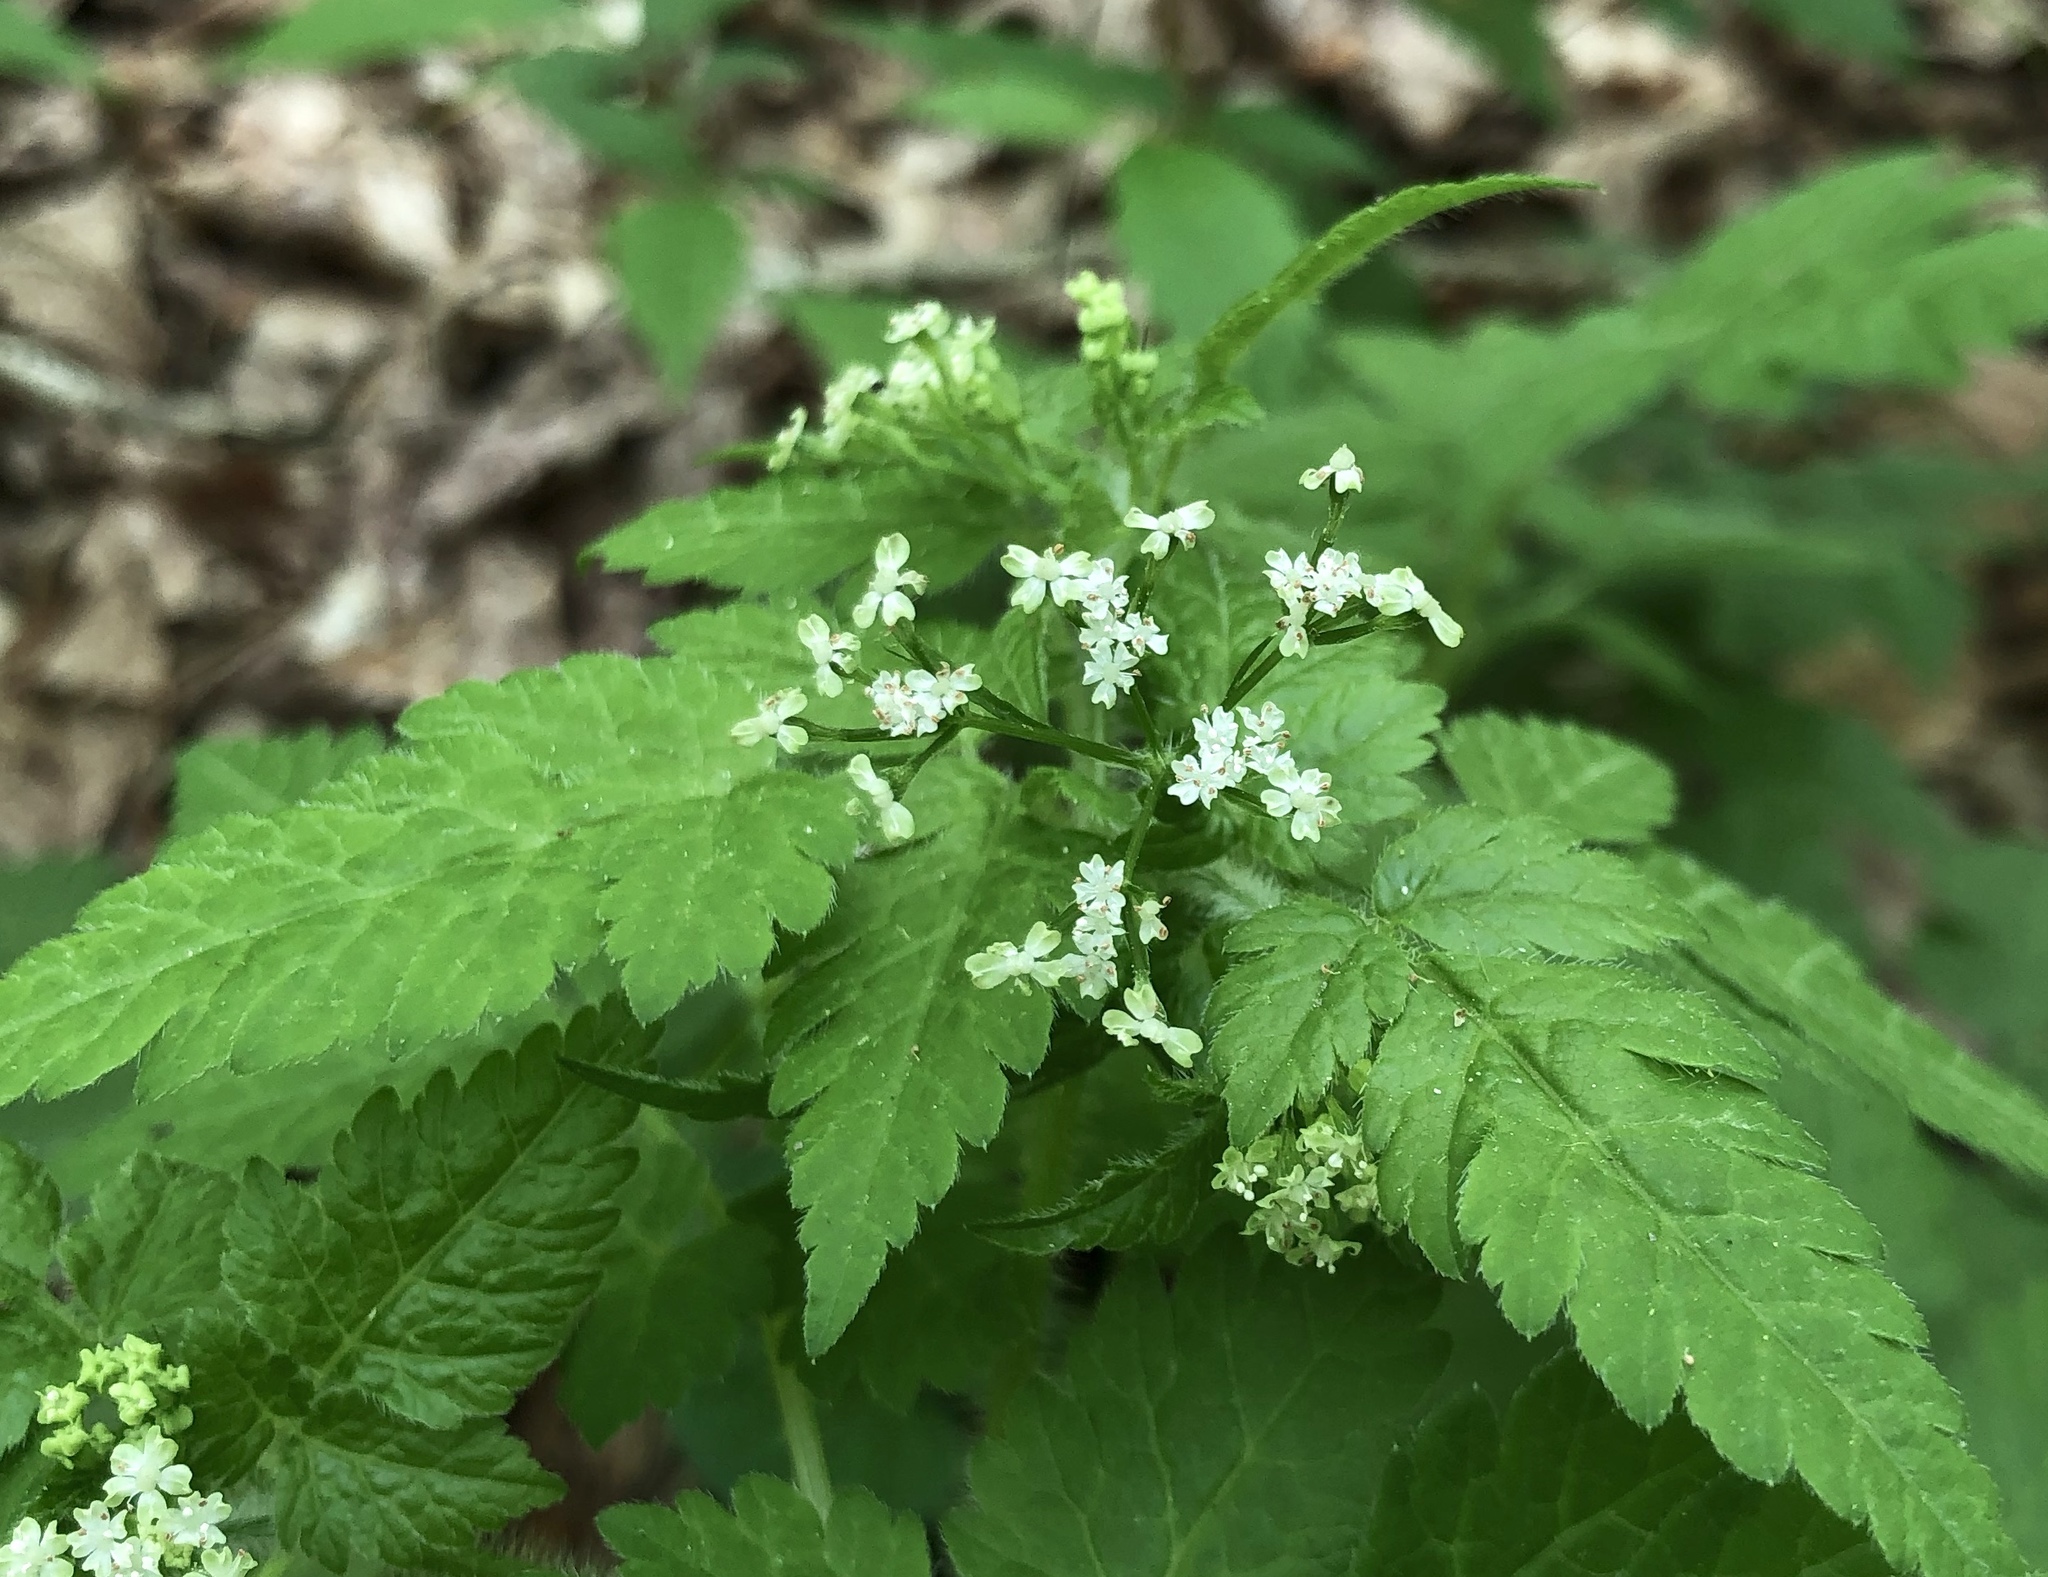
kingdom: Plantae
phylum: Tracheophyta
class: Magnoliopsida
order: Apiales
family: Apiaceae
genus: Osmorhiza
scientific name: Osmorhiza claytonii
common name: Hairy sweet cicely
